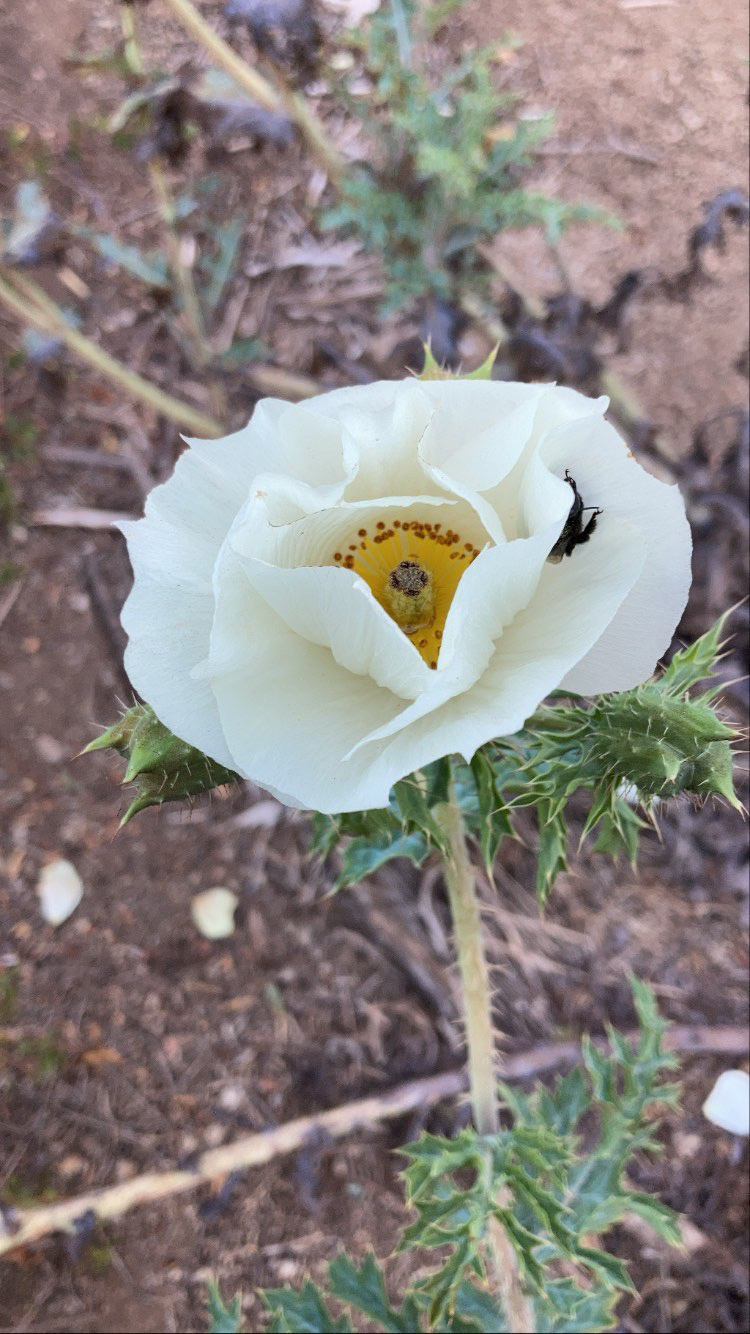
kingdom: Plantae
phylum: Tracheophyta
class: Magnoliopsida
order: Ranunculales
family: Papaveraceae
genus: Argemone
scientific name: Argemone hunnemannii
